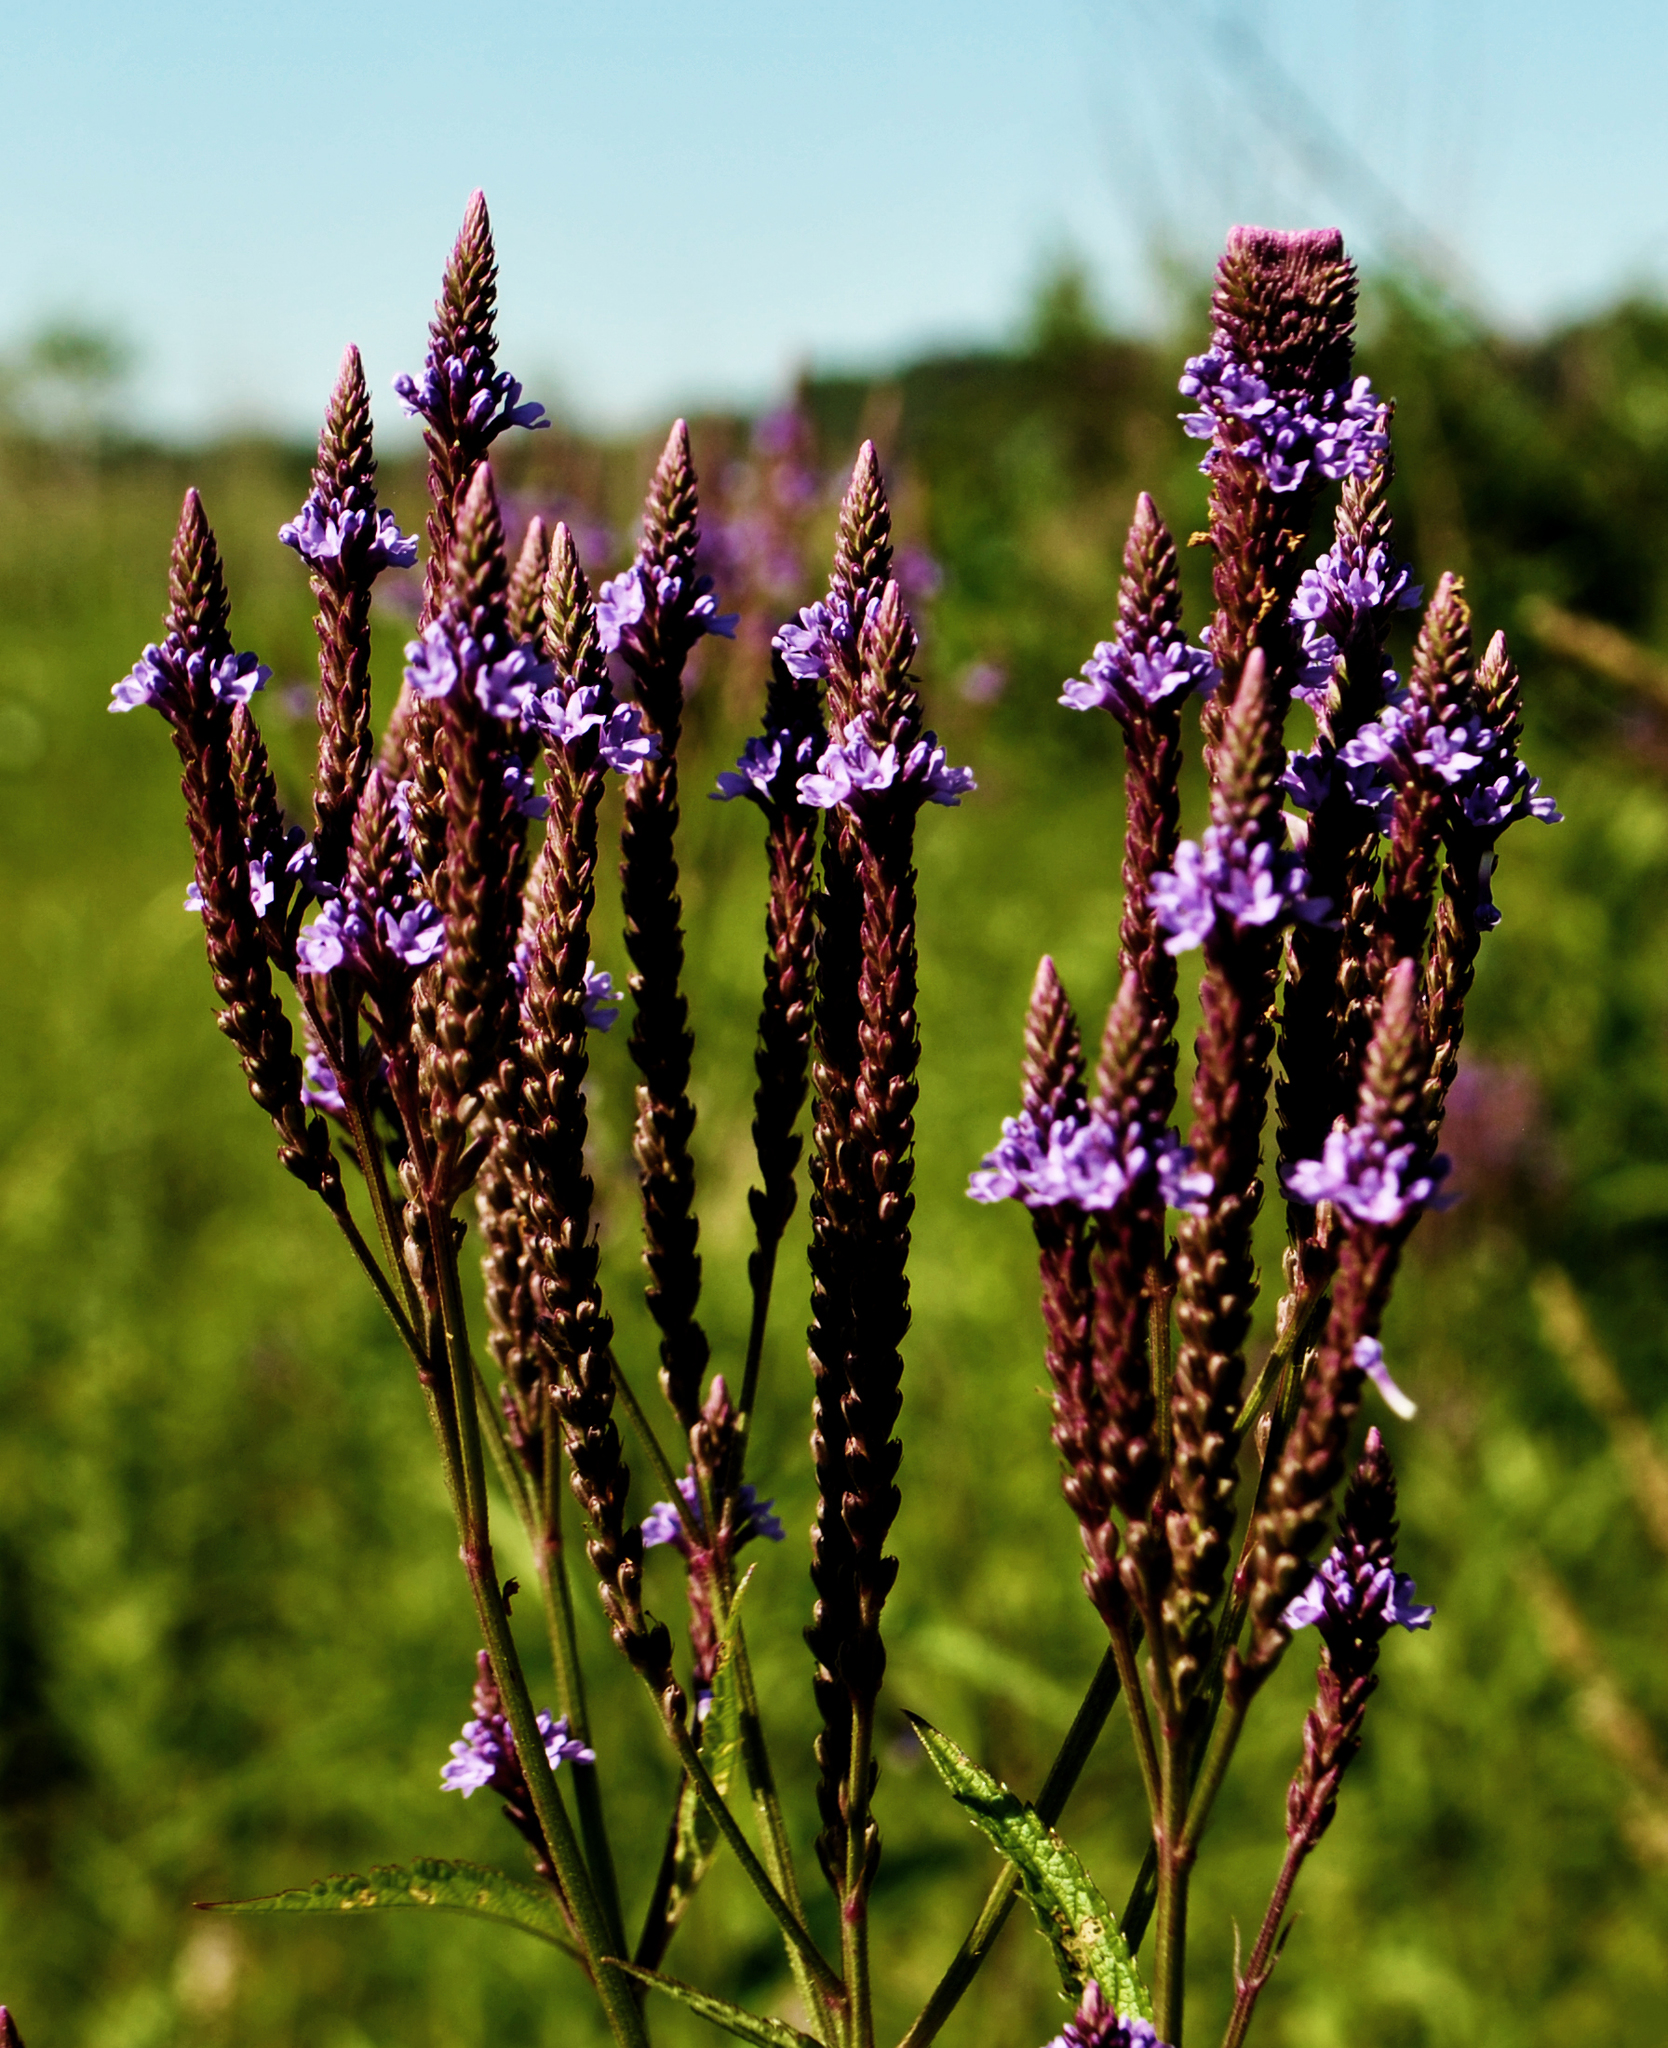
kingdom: Plantae
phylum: Tracheophyta
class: Magnoliopsida
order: Lamiales
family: Verbenaceae
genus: Verbena
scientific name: Verbena hastata
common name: American blue vervain
